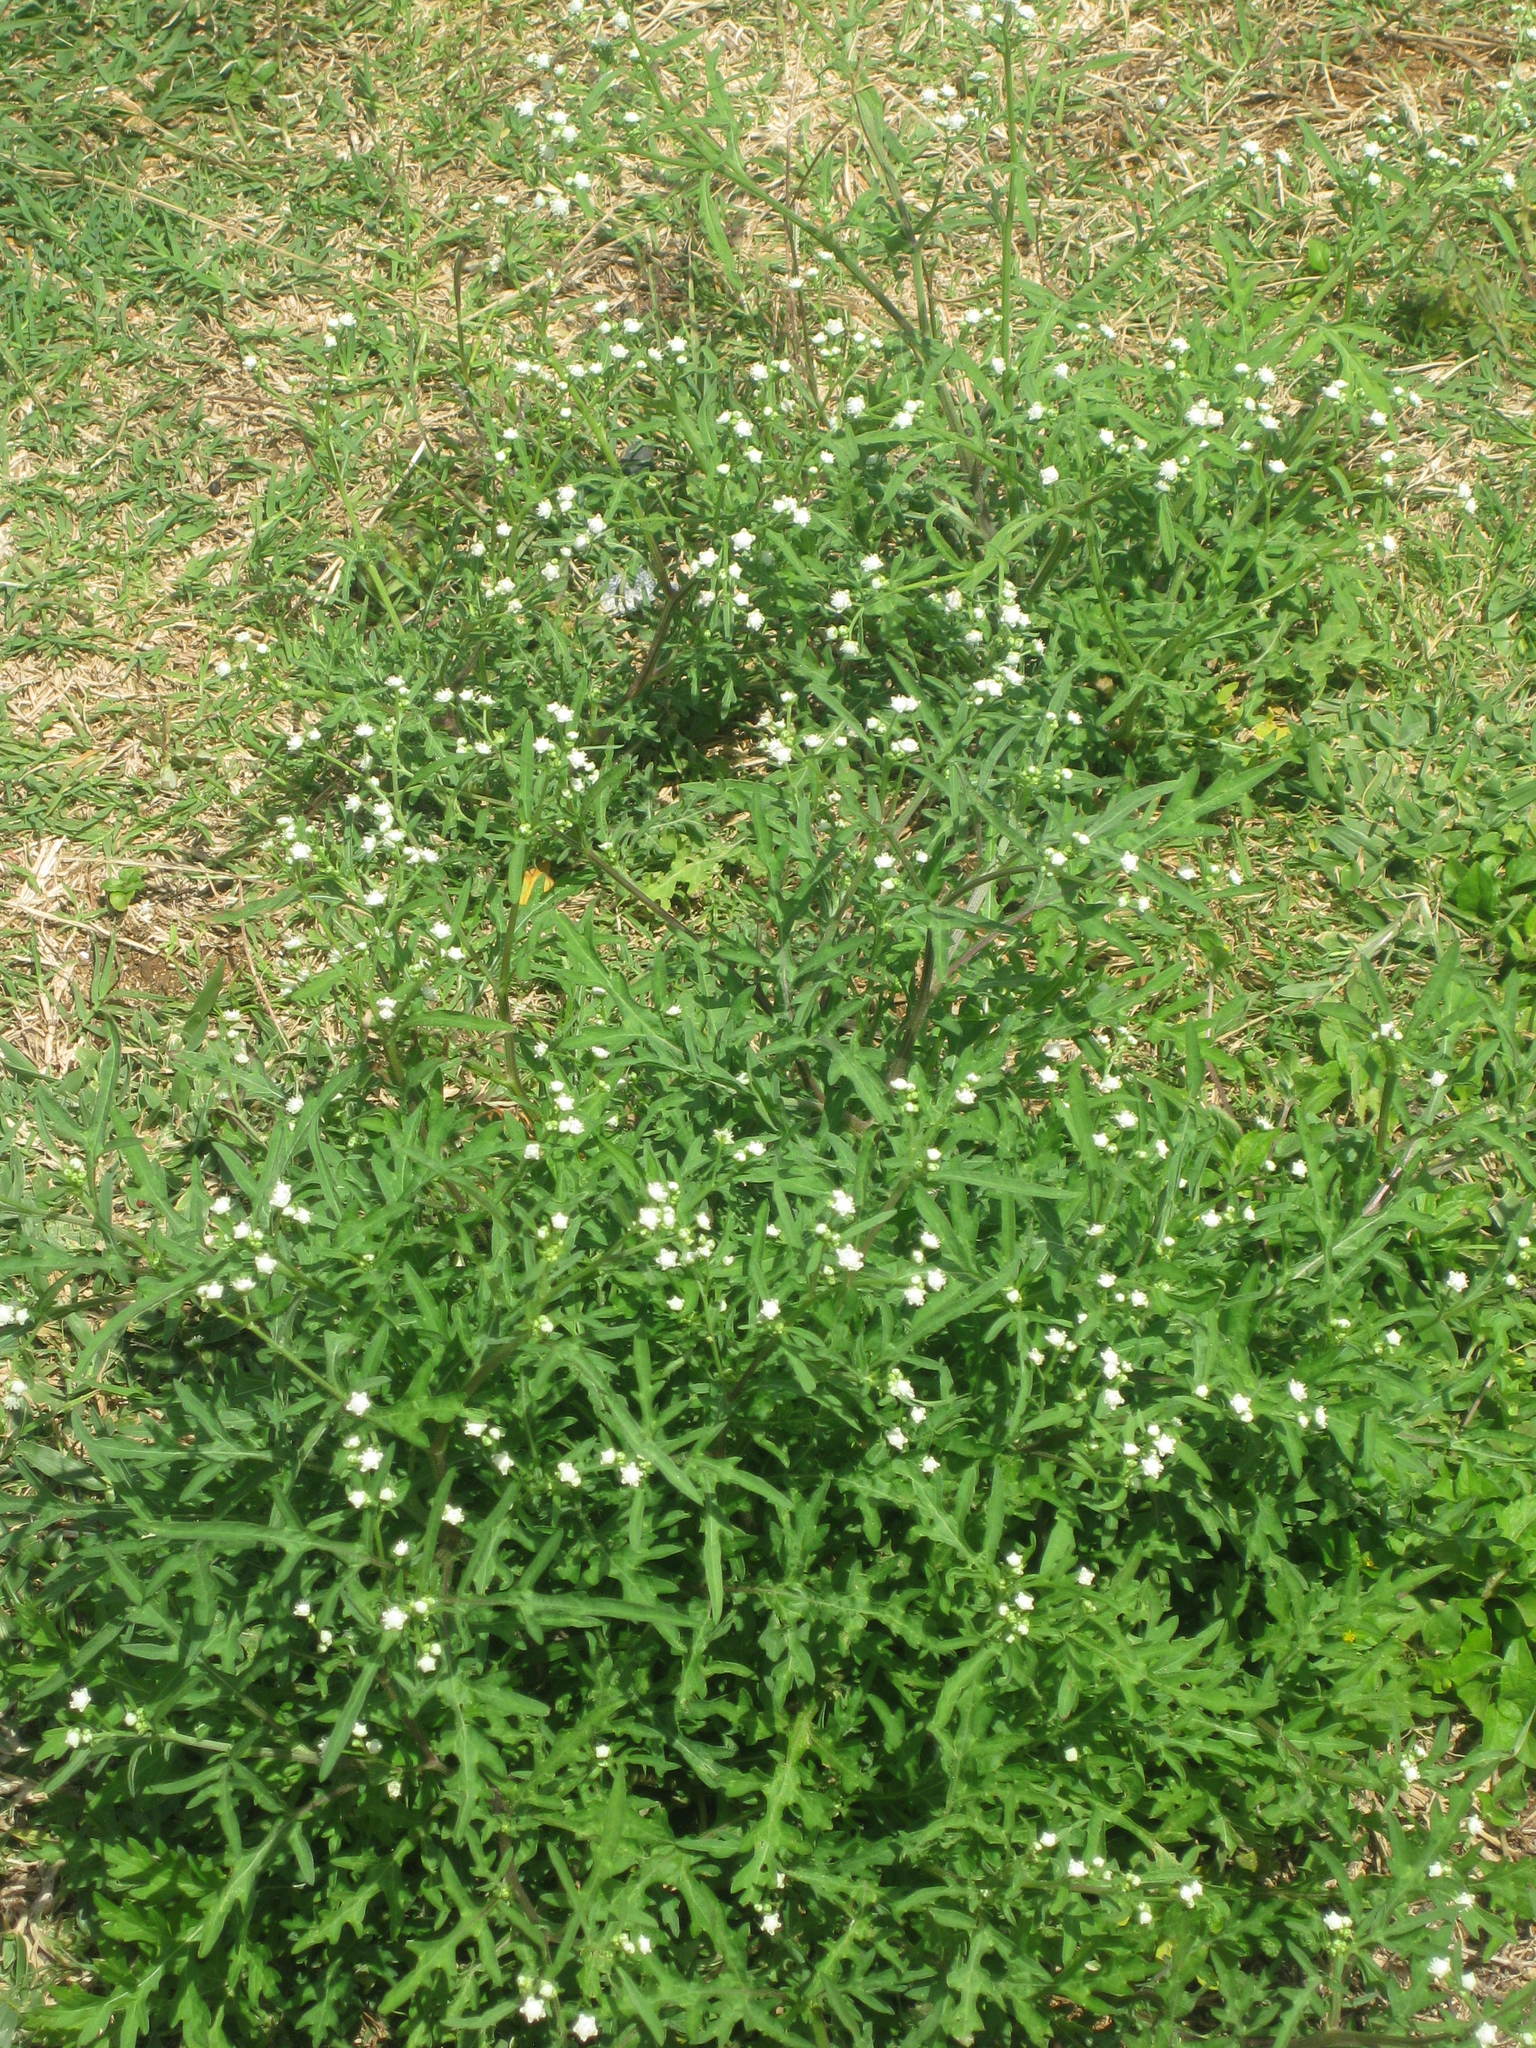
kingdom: Plantae
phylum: Tracheophyta
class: Magnoliopsida
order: Asterales
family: Asteraceae
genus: Parthenium
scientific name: Parthenium hysterophorus
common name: Santa maria feverfew
